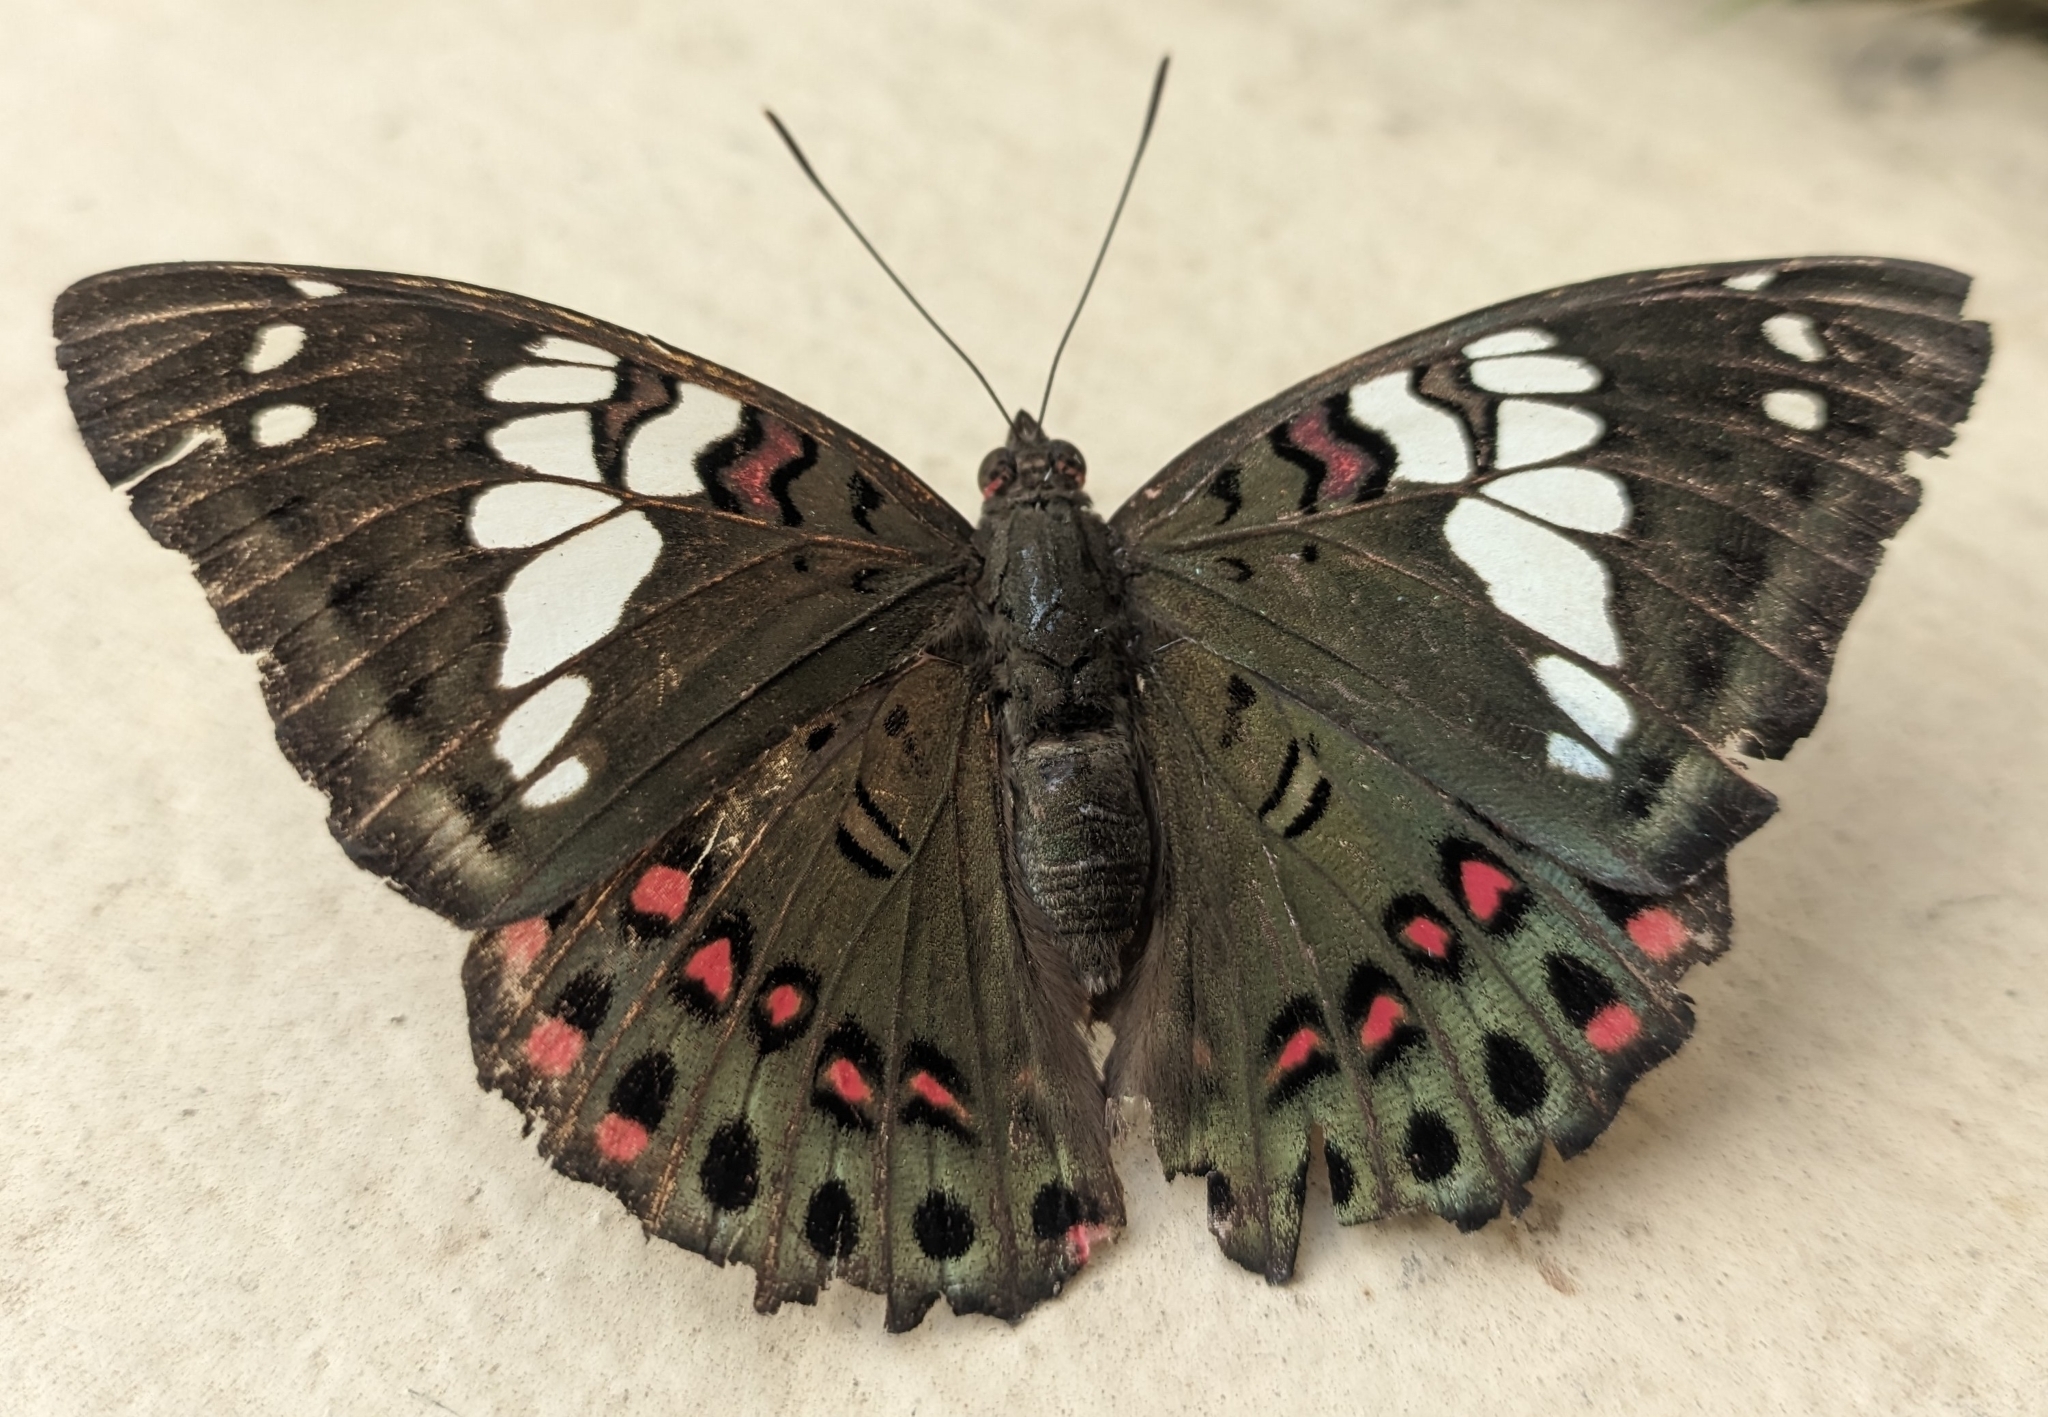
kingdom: Animalia
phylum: Arthropoda
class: Insecta
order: Lepidoptera
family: Nymphalidae
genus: Euthalia
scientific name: Euthalia lubentina
